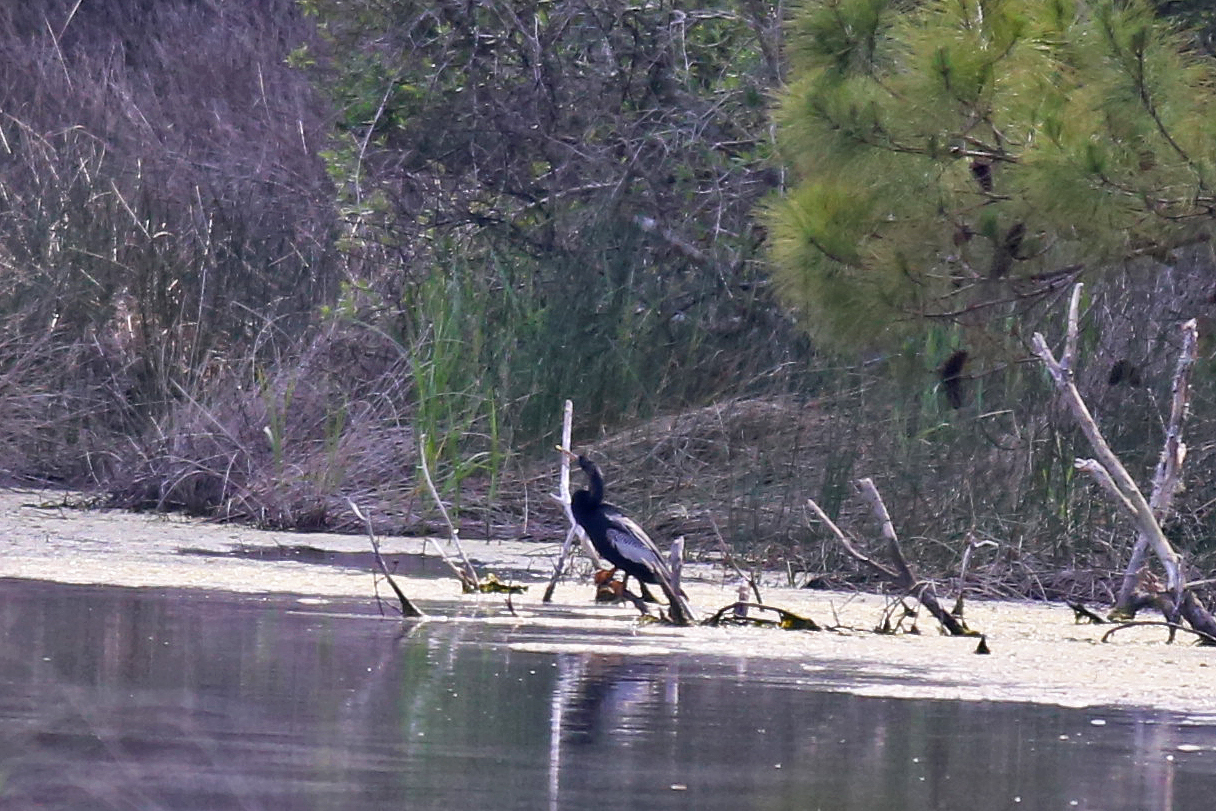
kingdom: Animalia
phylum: Chordata
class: Aves
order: Suliformes
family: Anhingidae
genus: Anhinga
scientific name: Anhinga anhinga
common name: Anhinga
